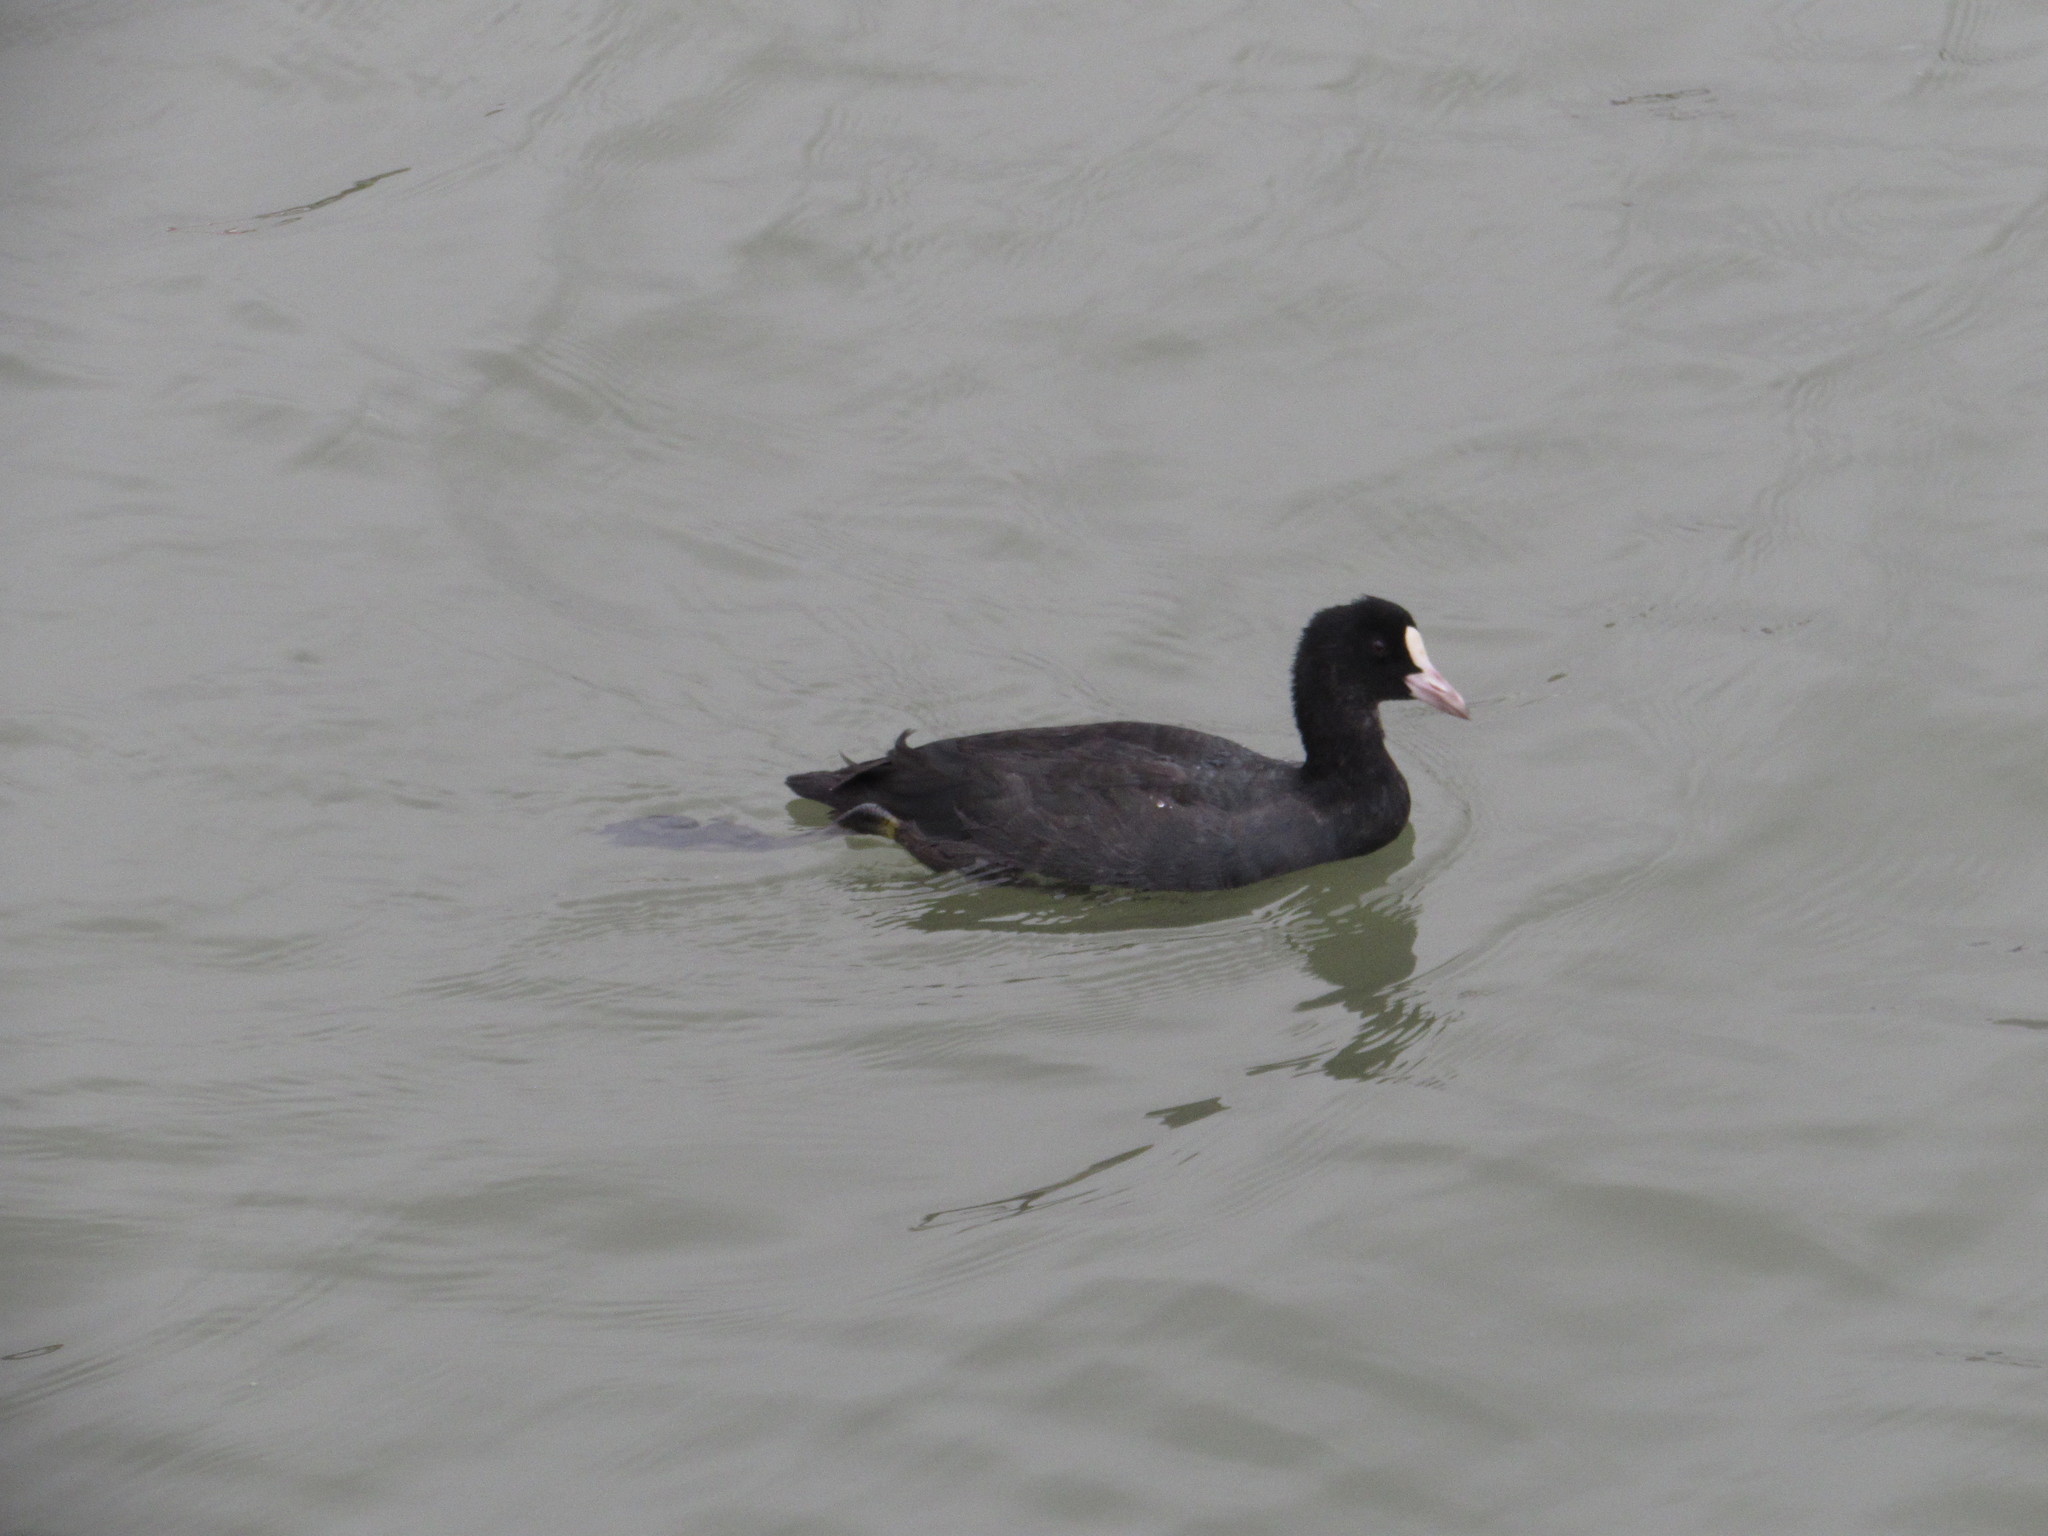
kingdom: Animalia
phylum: Chordata
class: Aves
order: Gruiformes
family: Rallidae
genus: Fulica
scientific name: Fulica atra
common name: Eurasian coot
